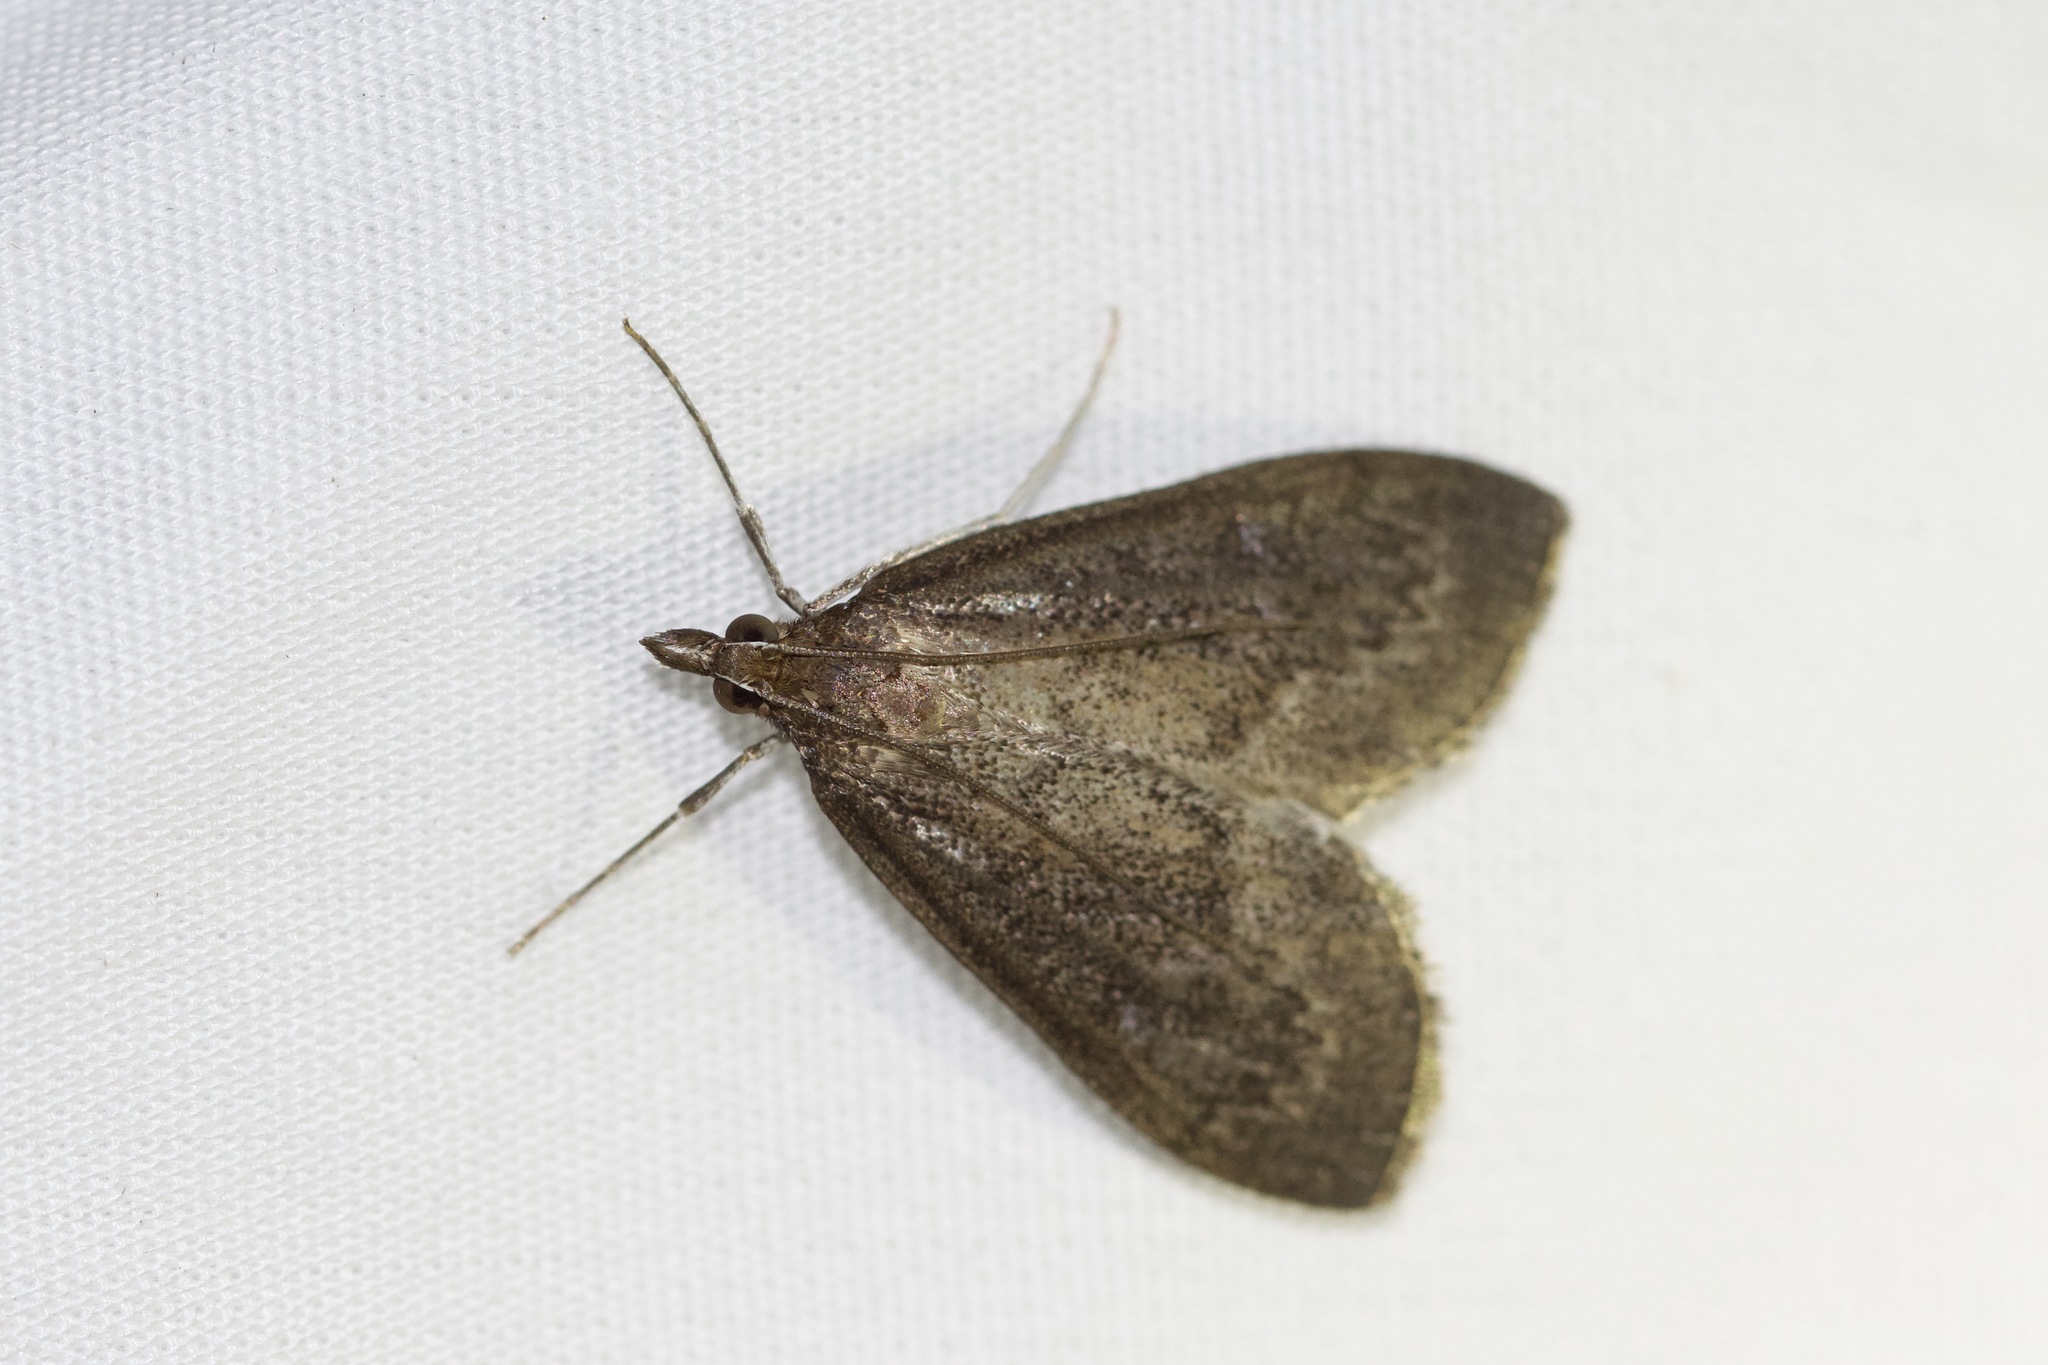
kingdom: Animalia
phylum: Arthropoda
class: Insecta
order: Lepidoptera
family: Crambidae
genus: Saucrobotys
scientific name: Saucrobotys futilalis
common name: Dogbane saucrobotys moth
